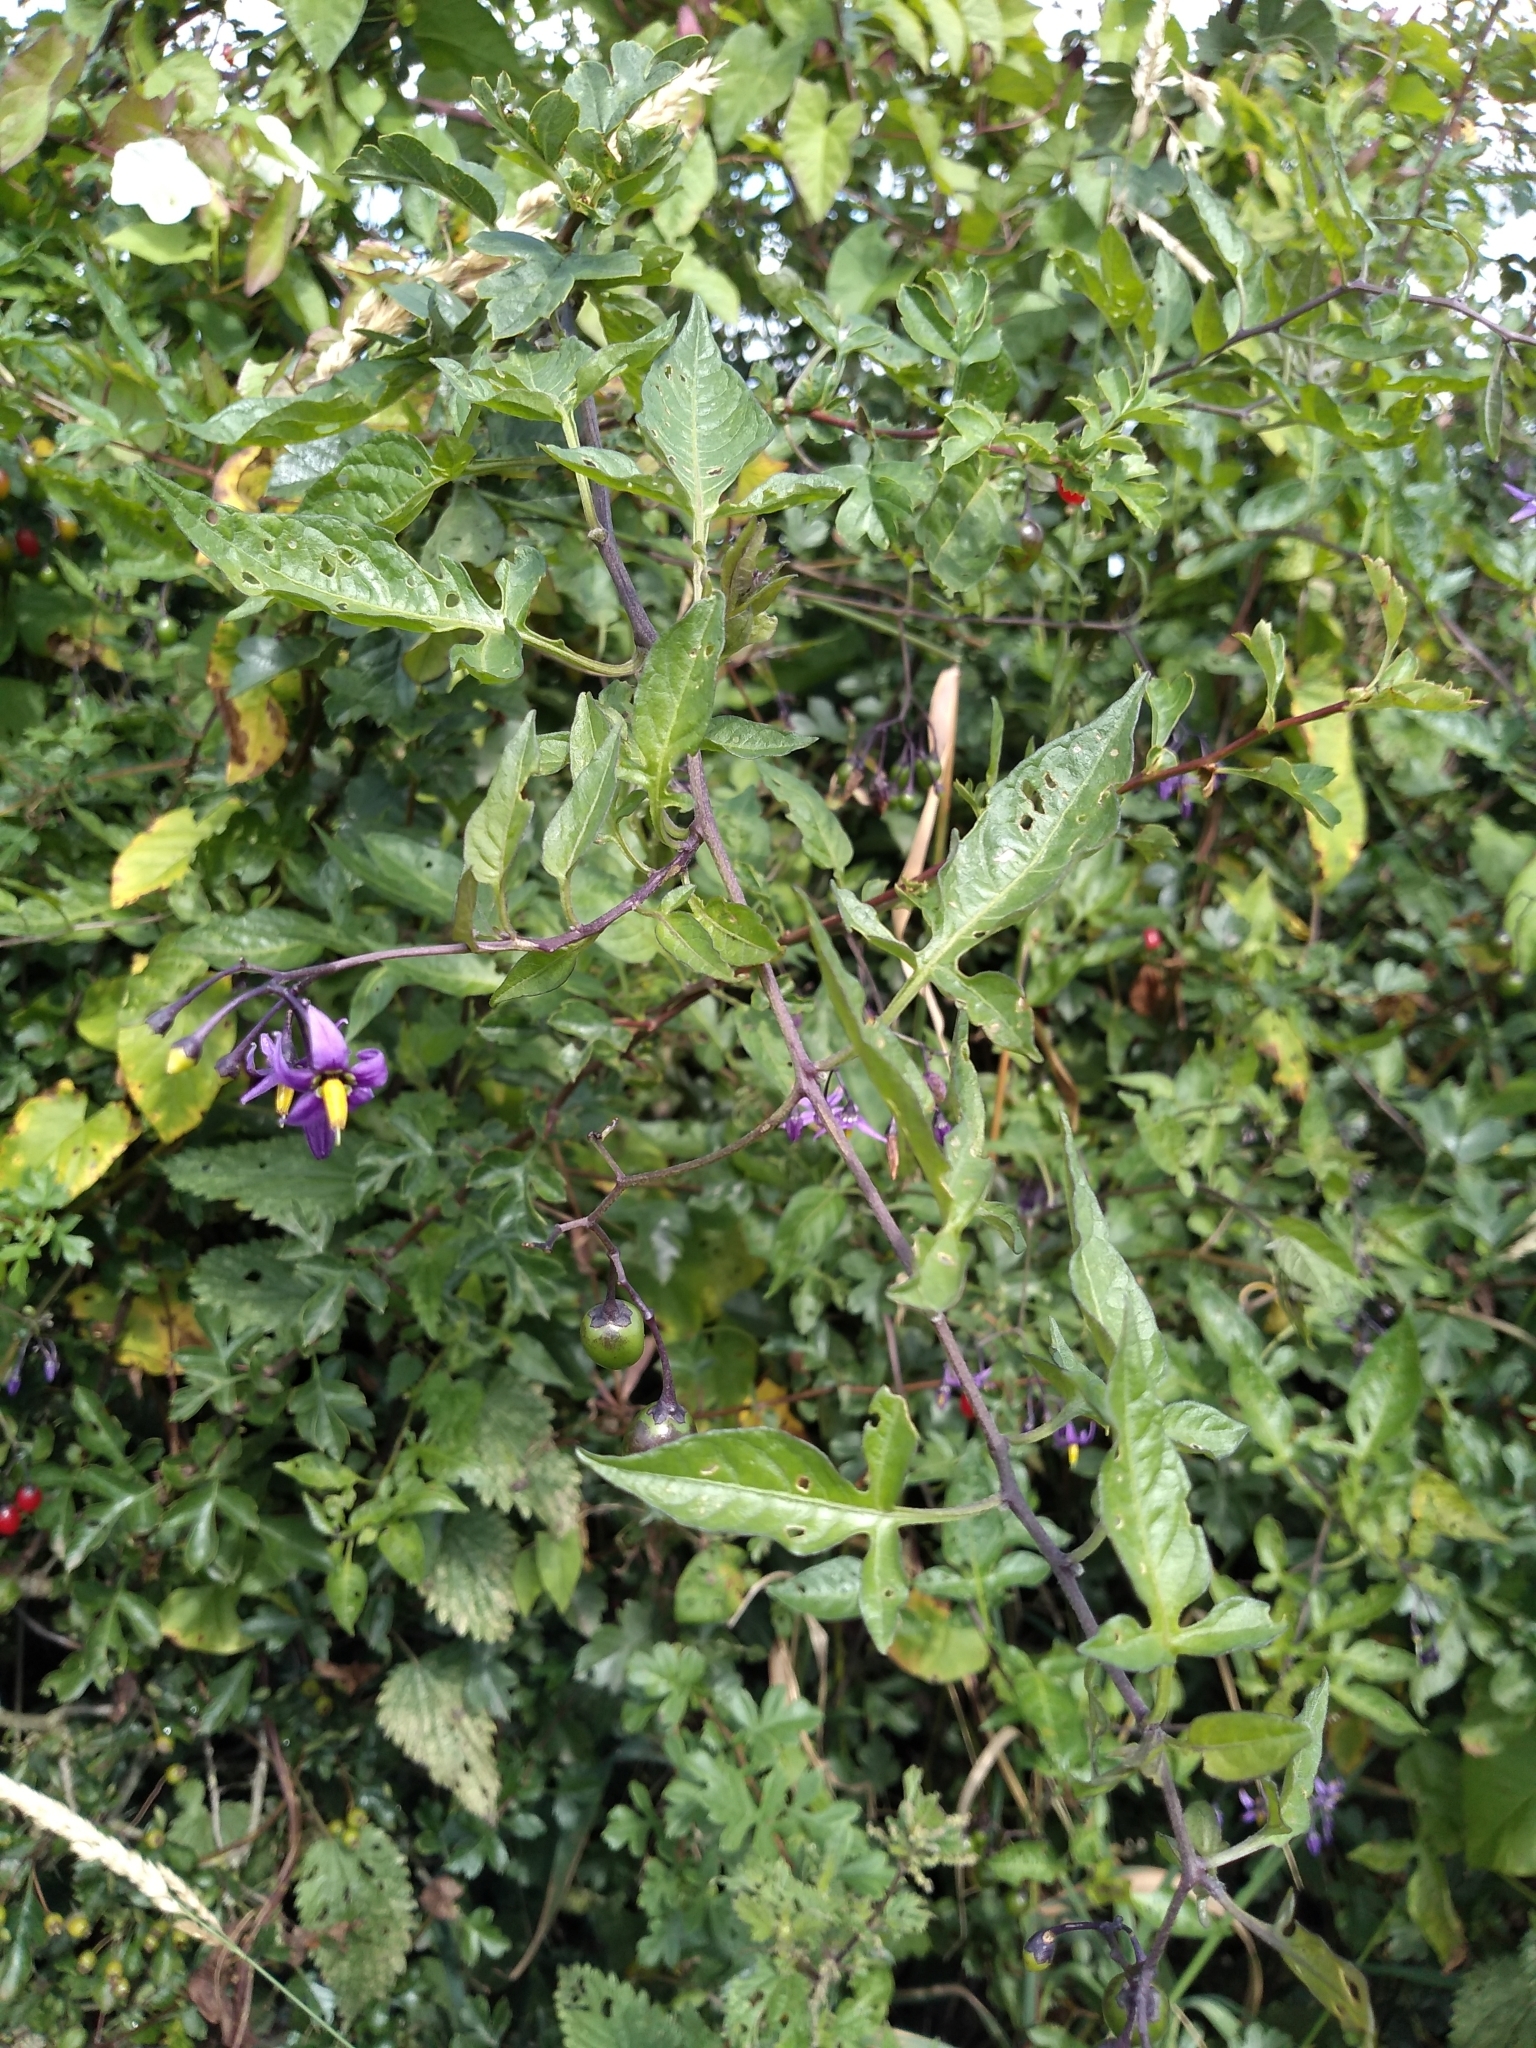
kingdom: Plantae
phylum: Tracheophyta
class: Magnoliopsida
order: Solanales
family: Solanaceae
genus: Solanum
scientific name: Solanum dulcamara
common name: Climbing nightshade
